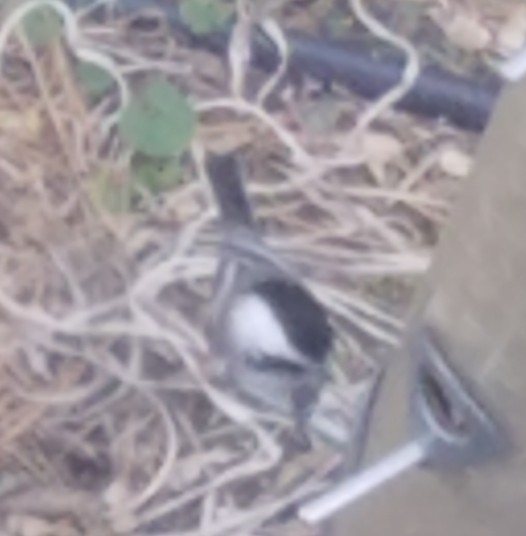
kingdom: Animalia
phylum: Chordata
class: Aves
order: Passeriformes
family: Paridae
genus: Poecile
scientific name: Poecile atricapillus
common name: Black-capped chickadee
